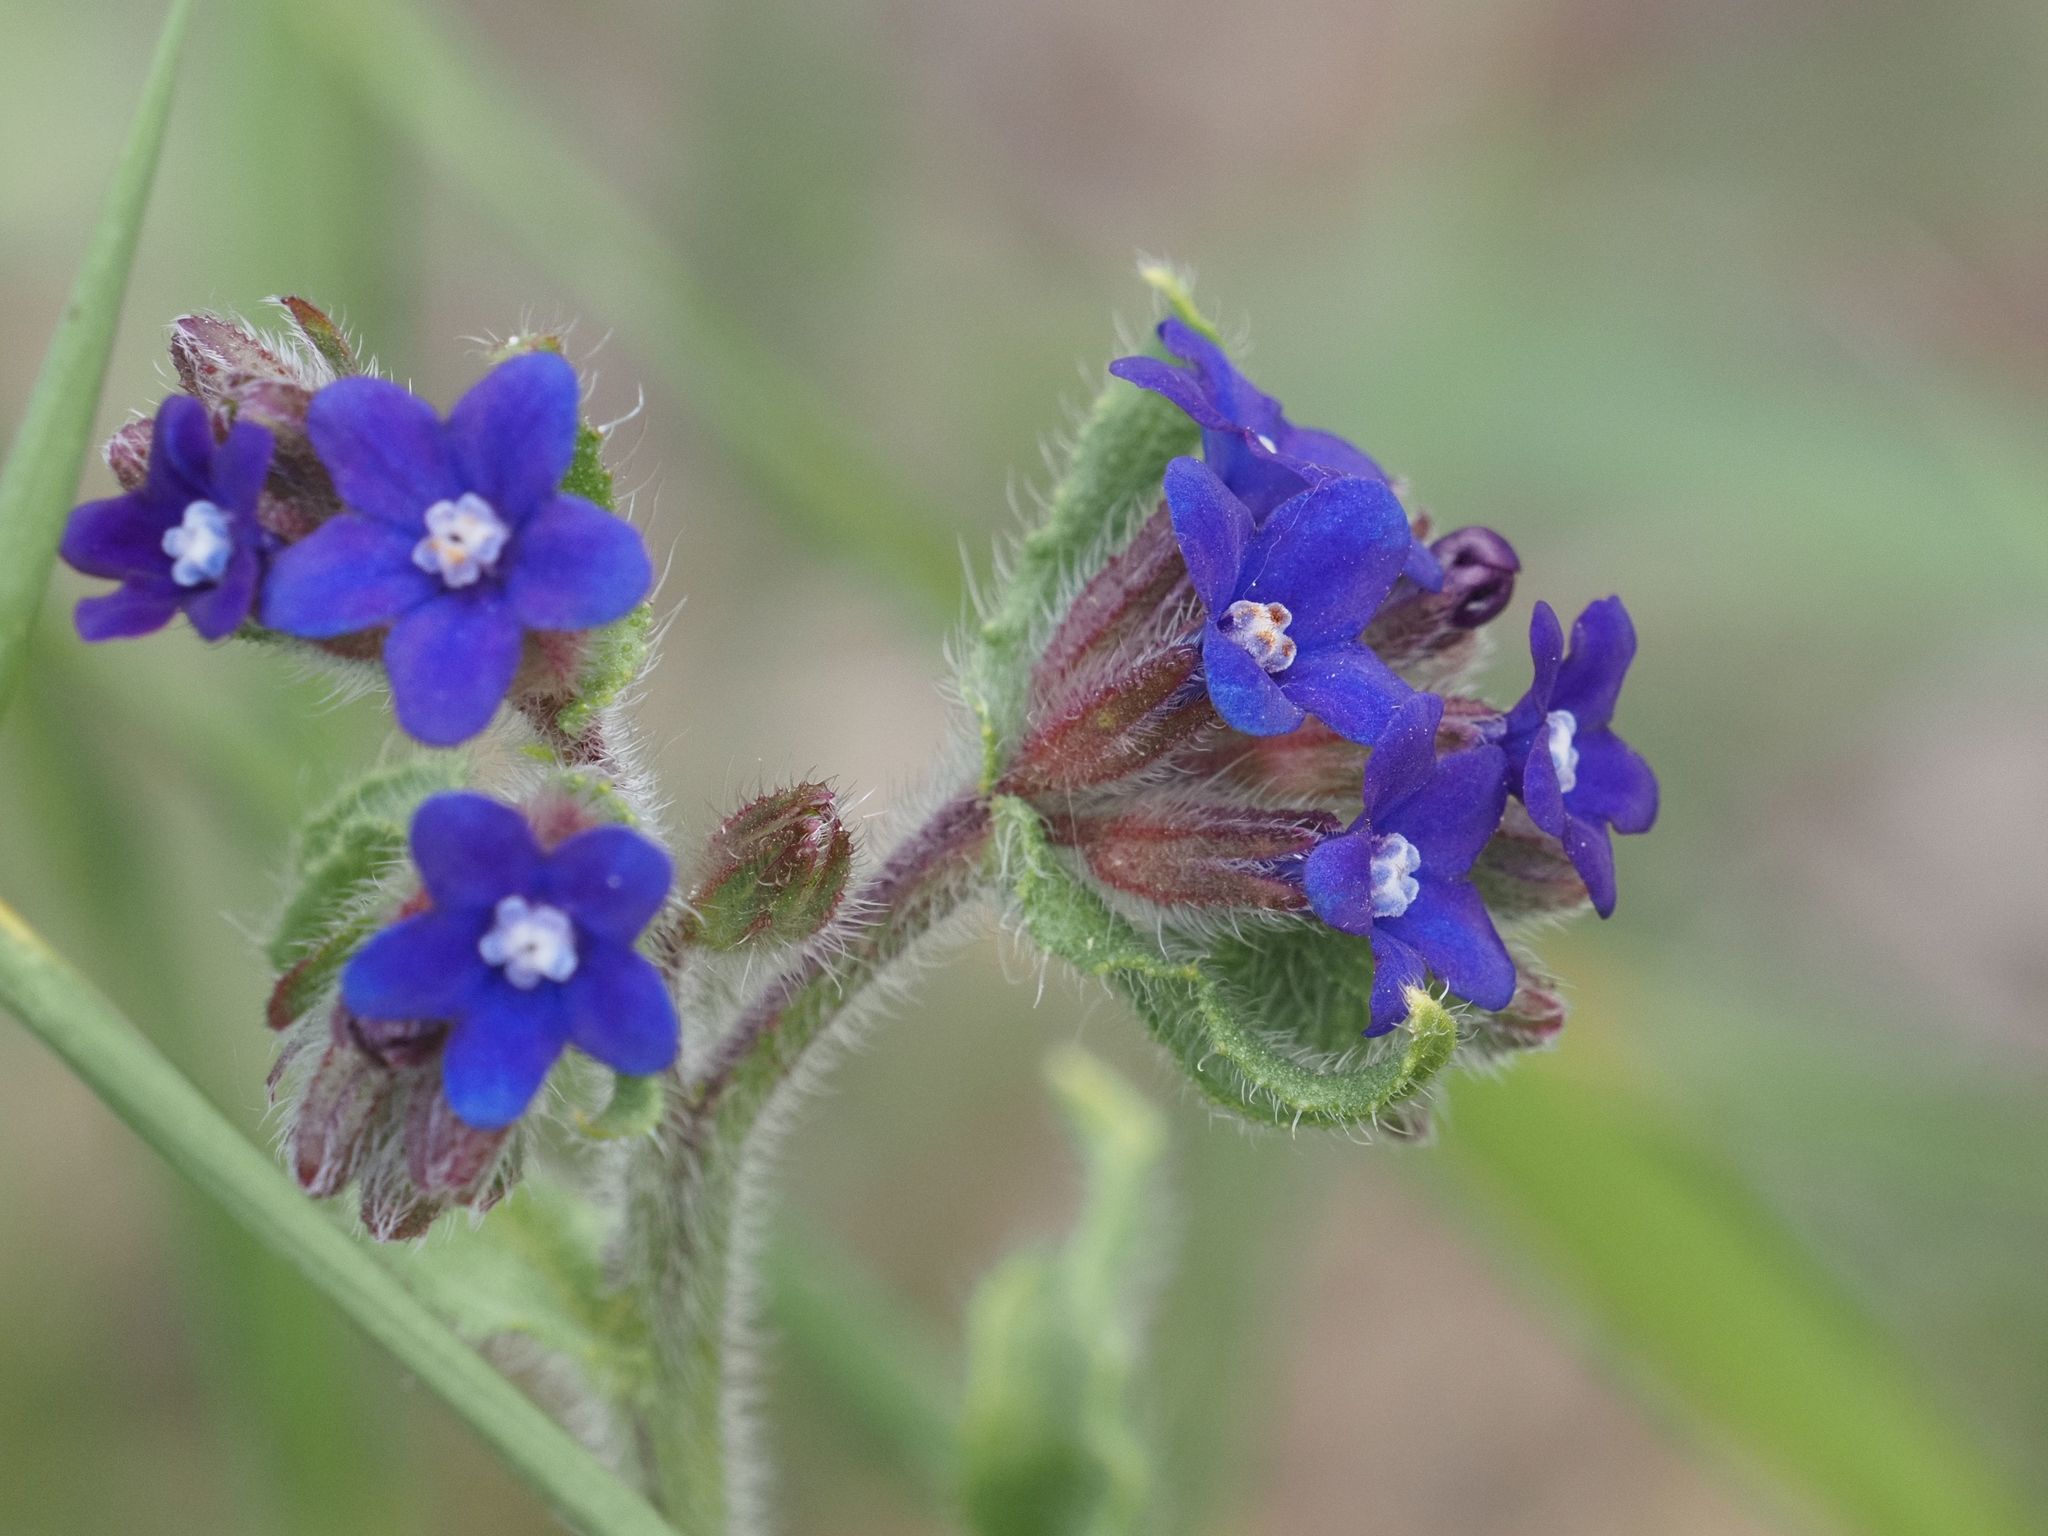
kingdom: Plantae
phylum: Tracheophyta
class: Magnoliopsida
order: Boraginales
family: Boraginaceae
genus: Anchusa
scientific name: Anchusa officinalis
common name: Alkanet
